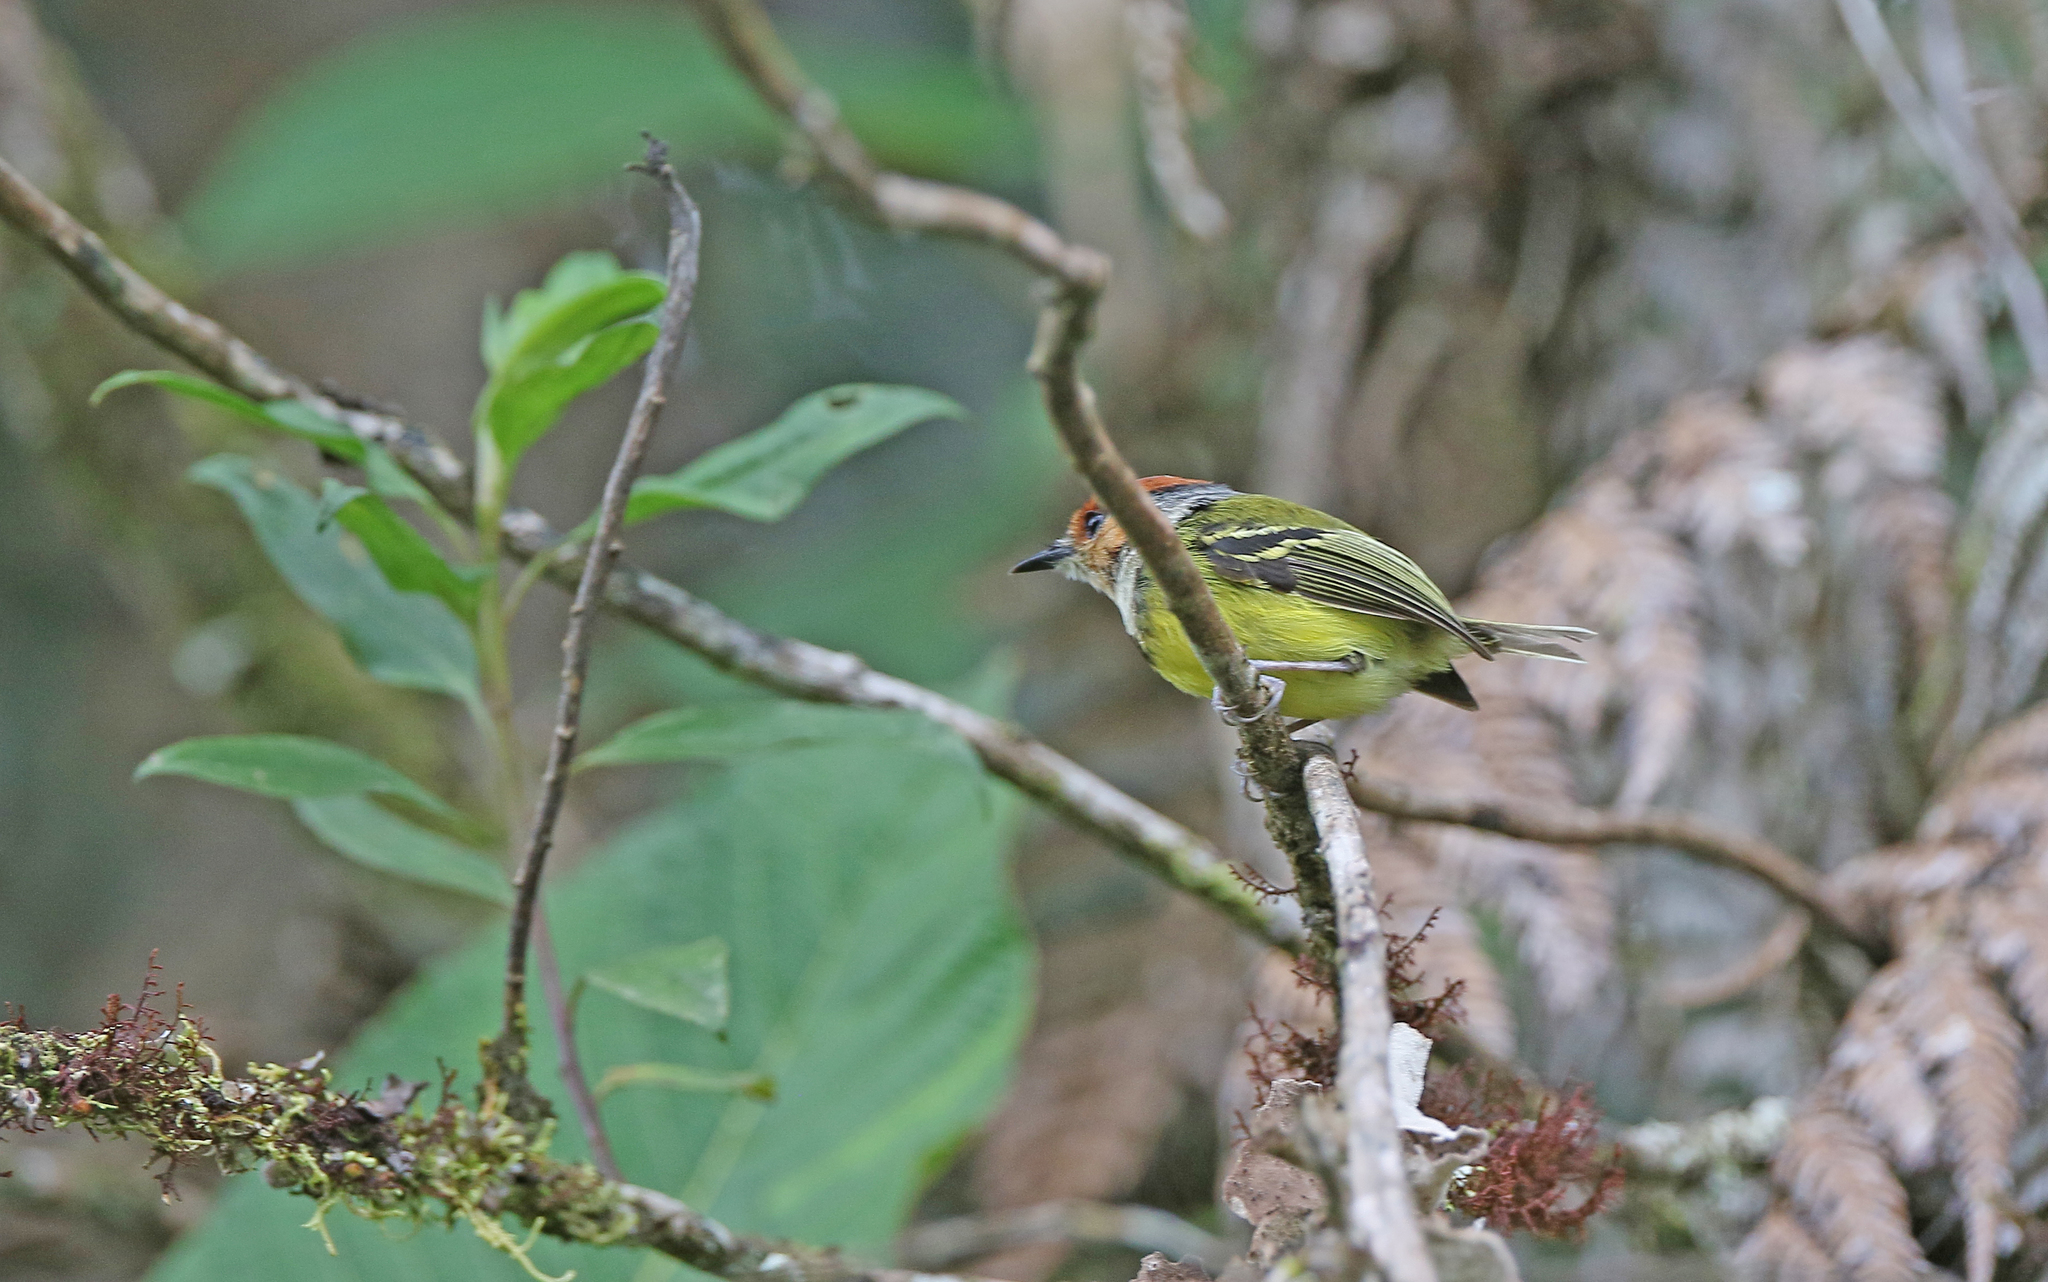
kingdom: Animalia
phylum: Chordata
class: Aves
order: Passeriformes
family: Tyrannidae
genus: Poecilotriccus
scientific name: Poecilotriccus ruficeps
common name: Rufous-crowned tody-flycatcher
